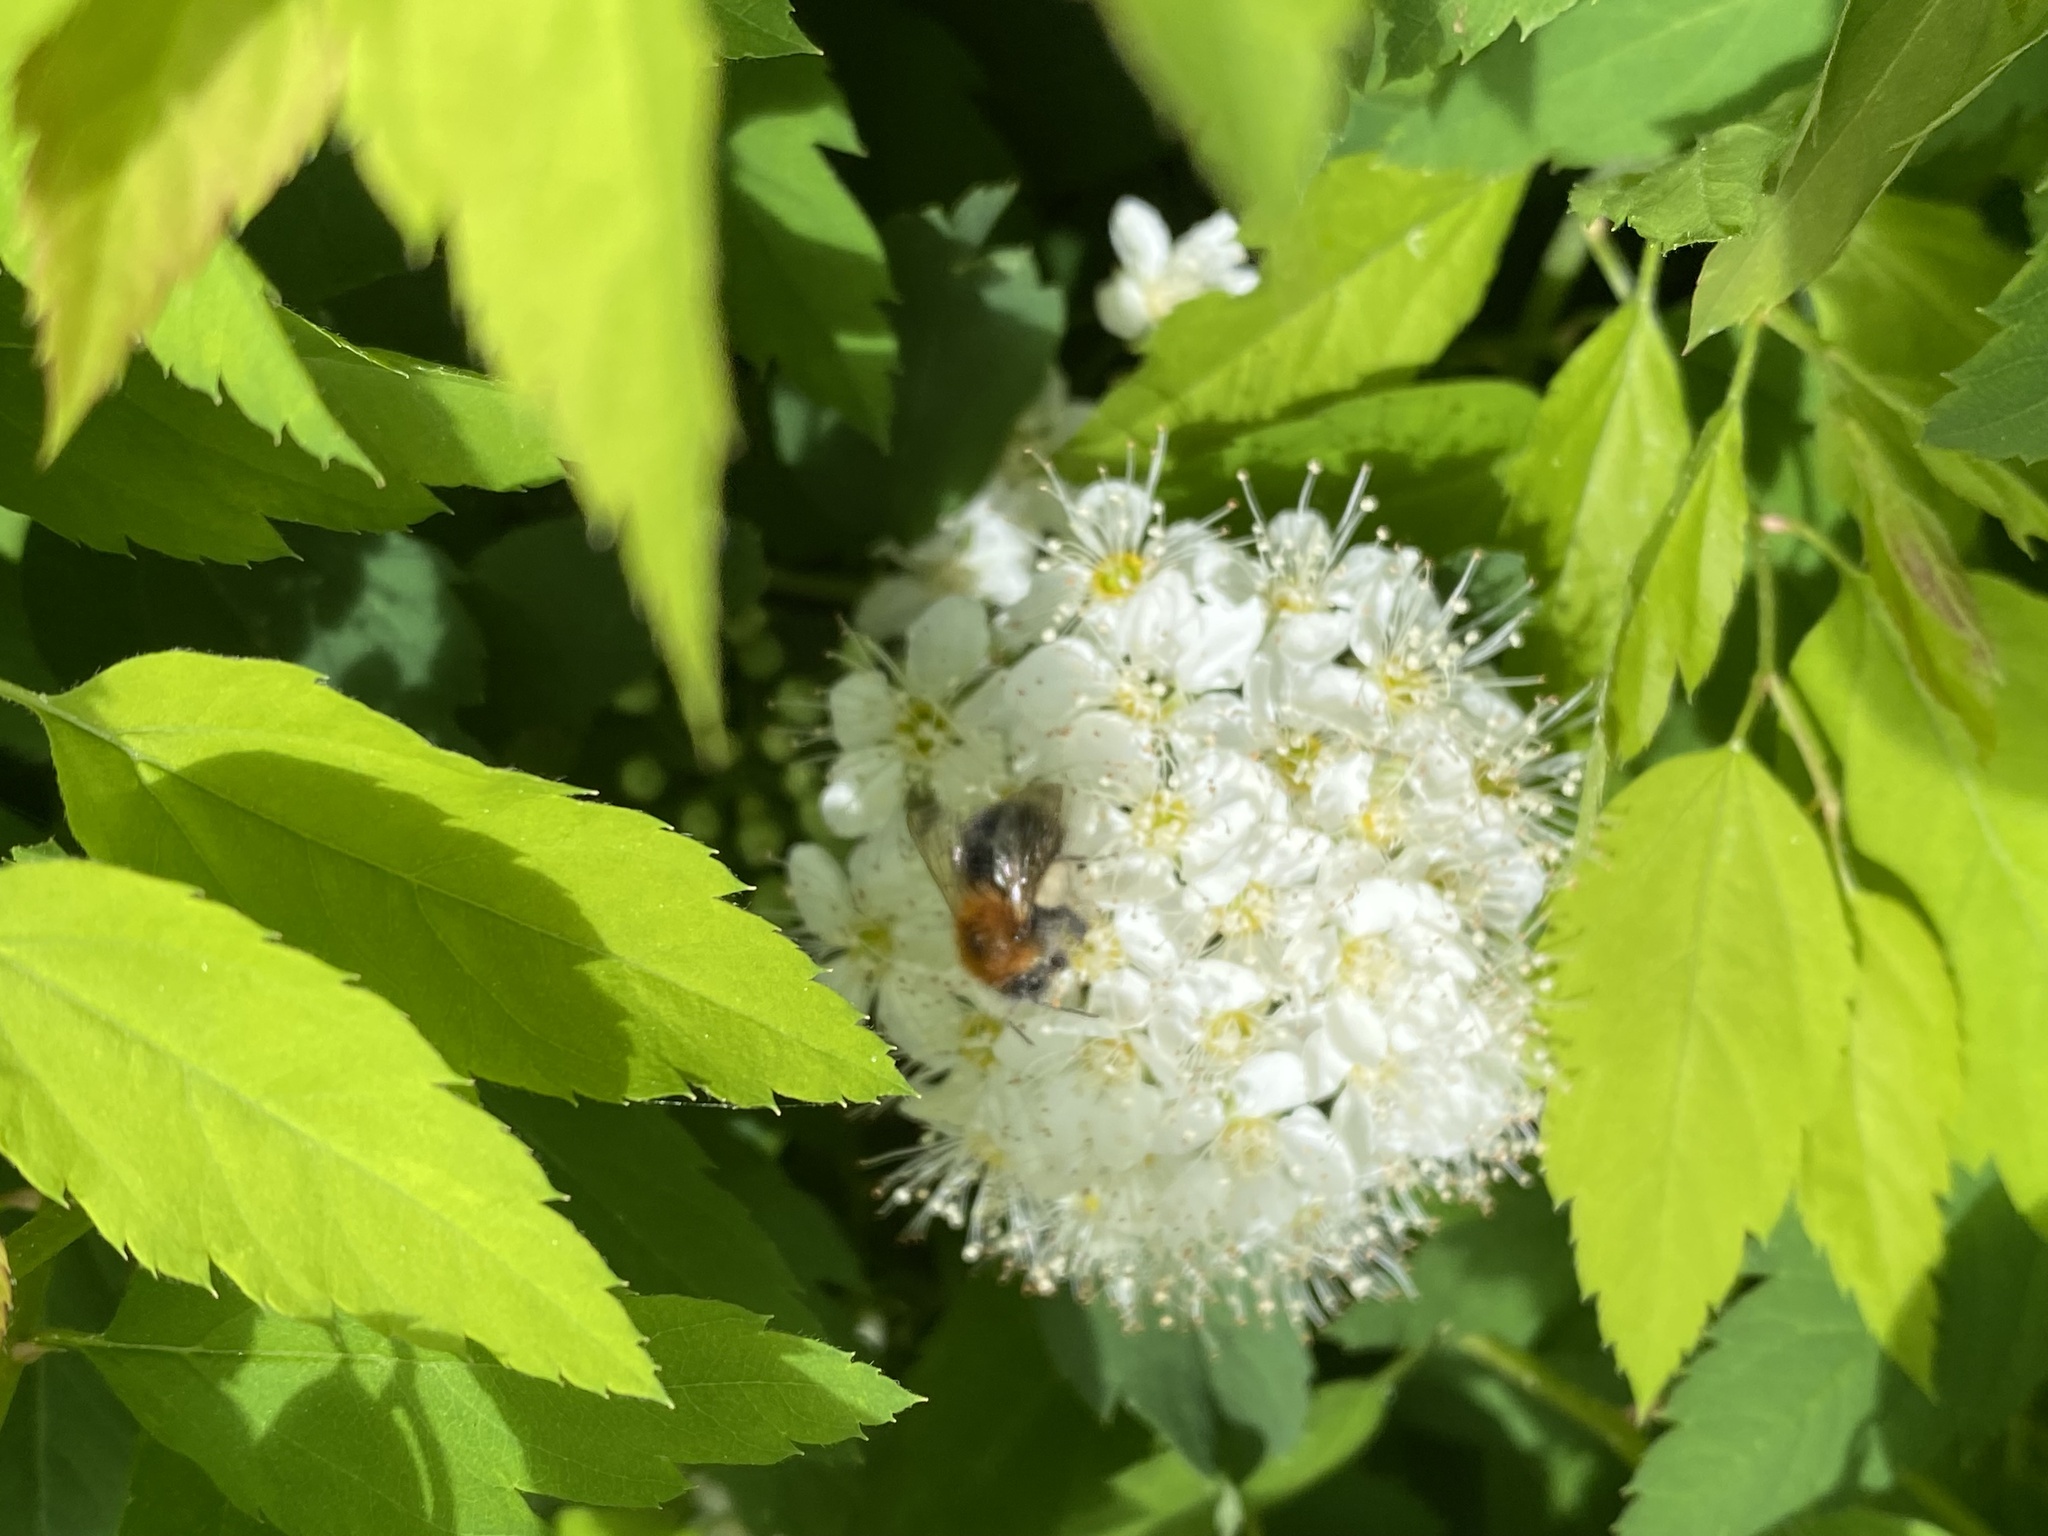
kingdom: Animalia
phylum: Arthropoda
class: Insecta
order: Hymenoptera
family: Apidae
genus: Bombus
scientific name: Bombus hypnorum
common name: New garden bumblebee
